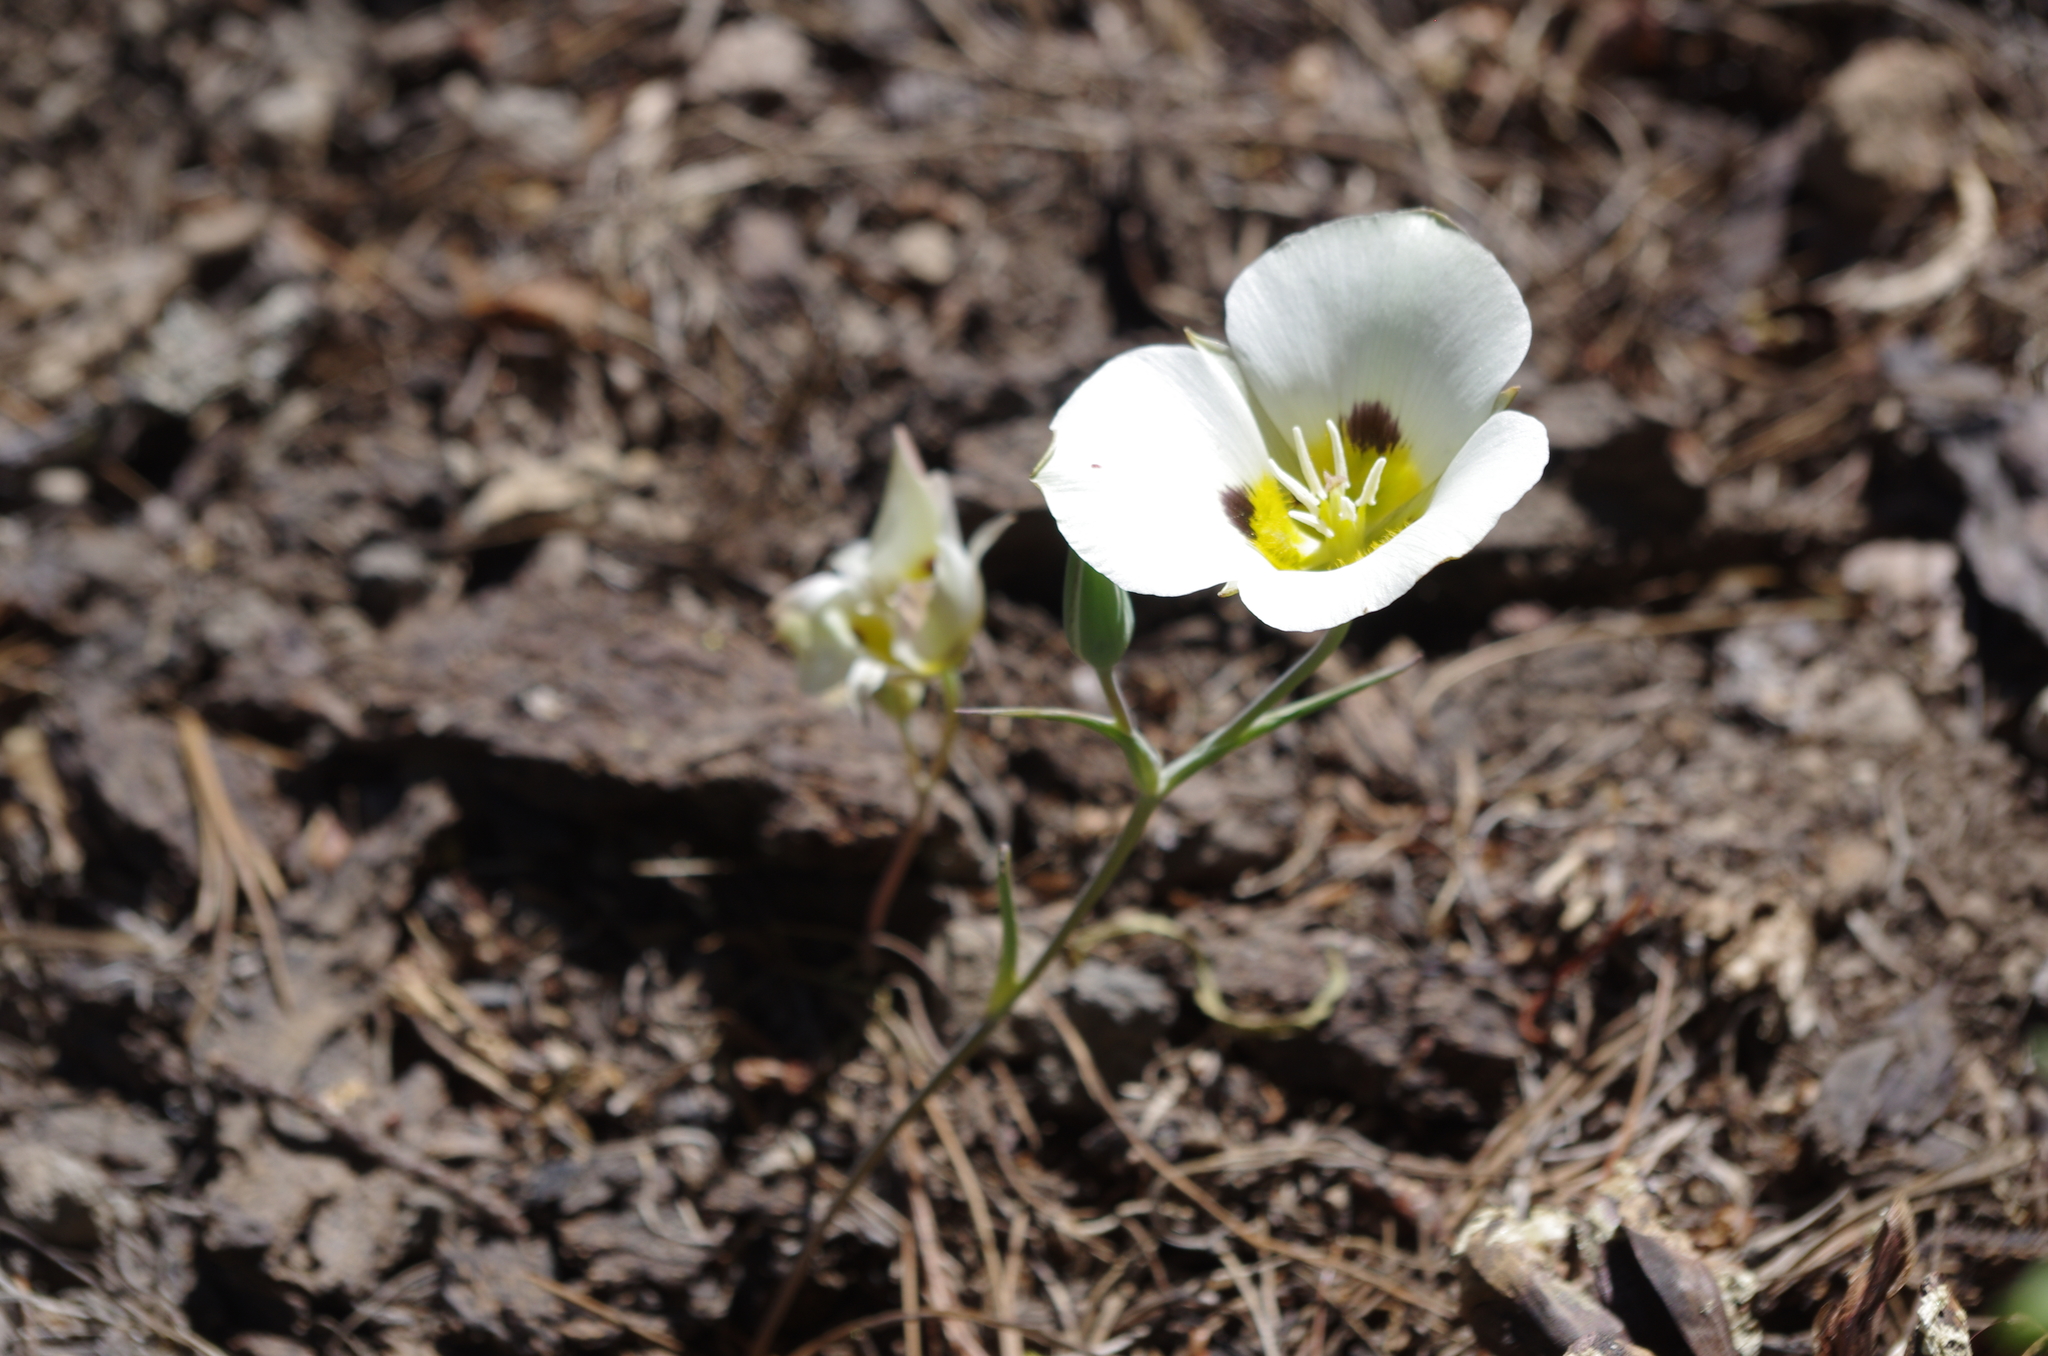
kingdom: Plantae
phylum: Tracheophyta
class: Liliopsida
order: Liliales
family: Liliaceae
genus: Calochortus
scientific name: Calochortus leichtlinii
